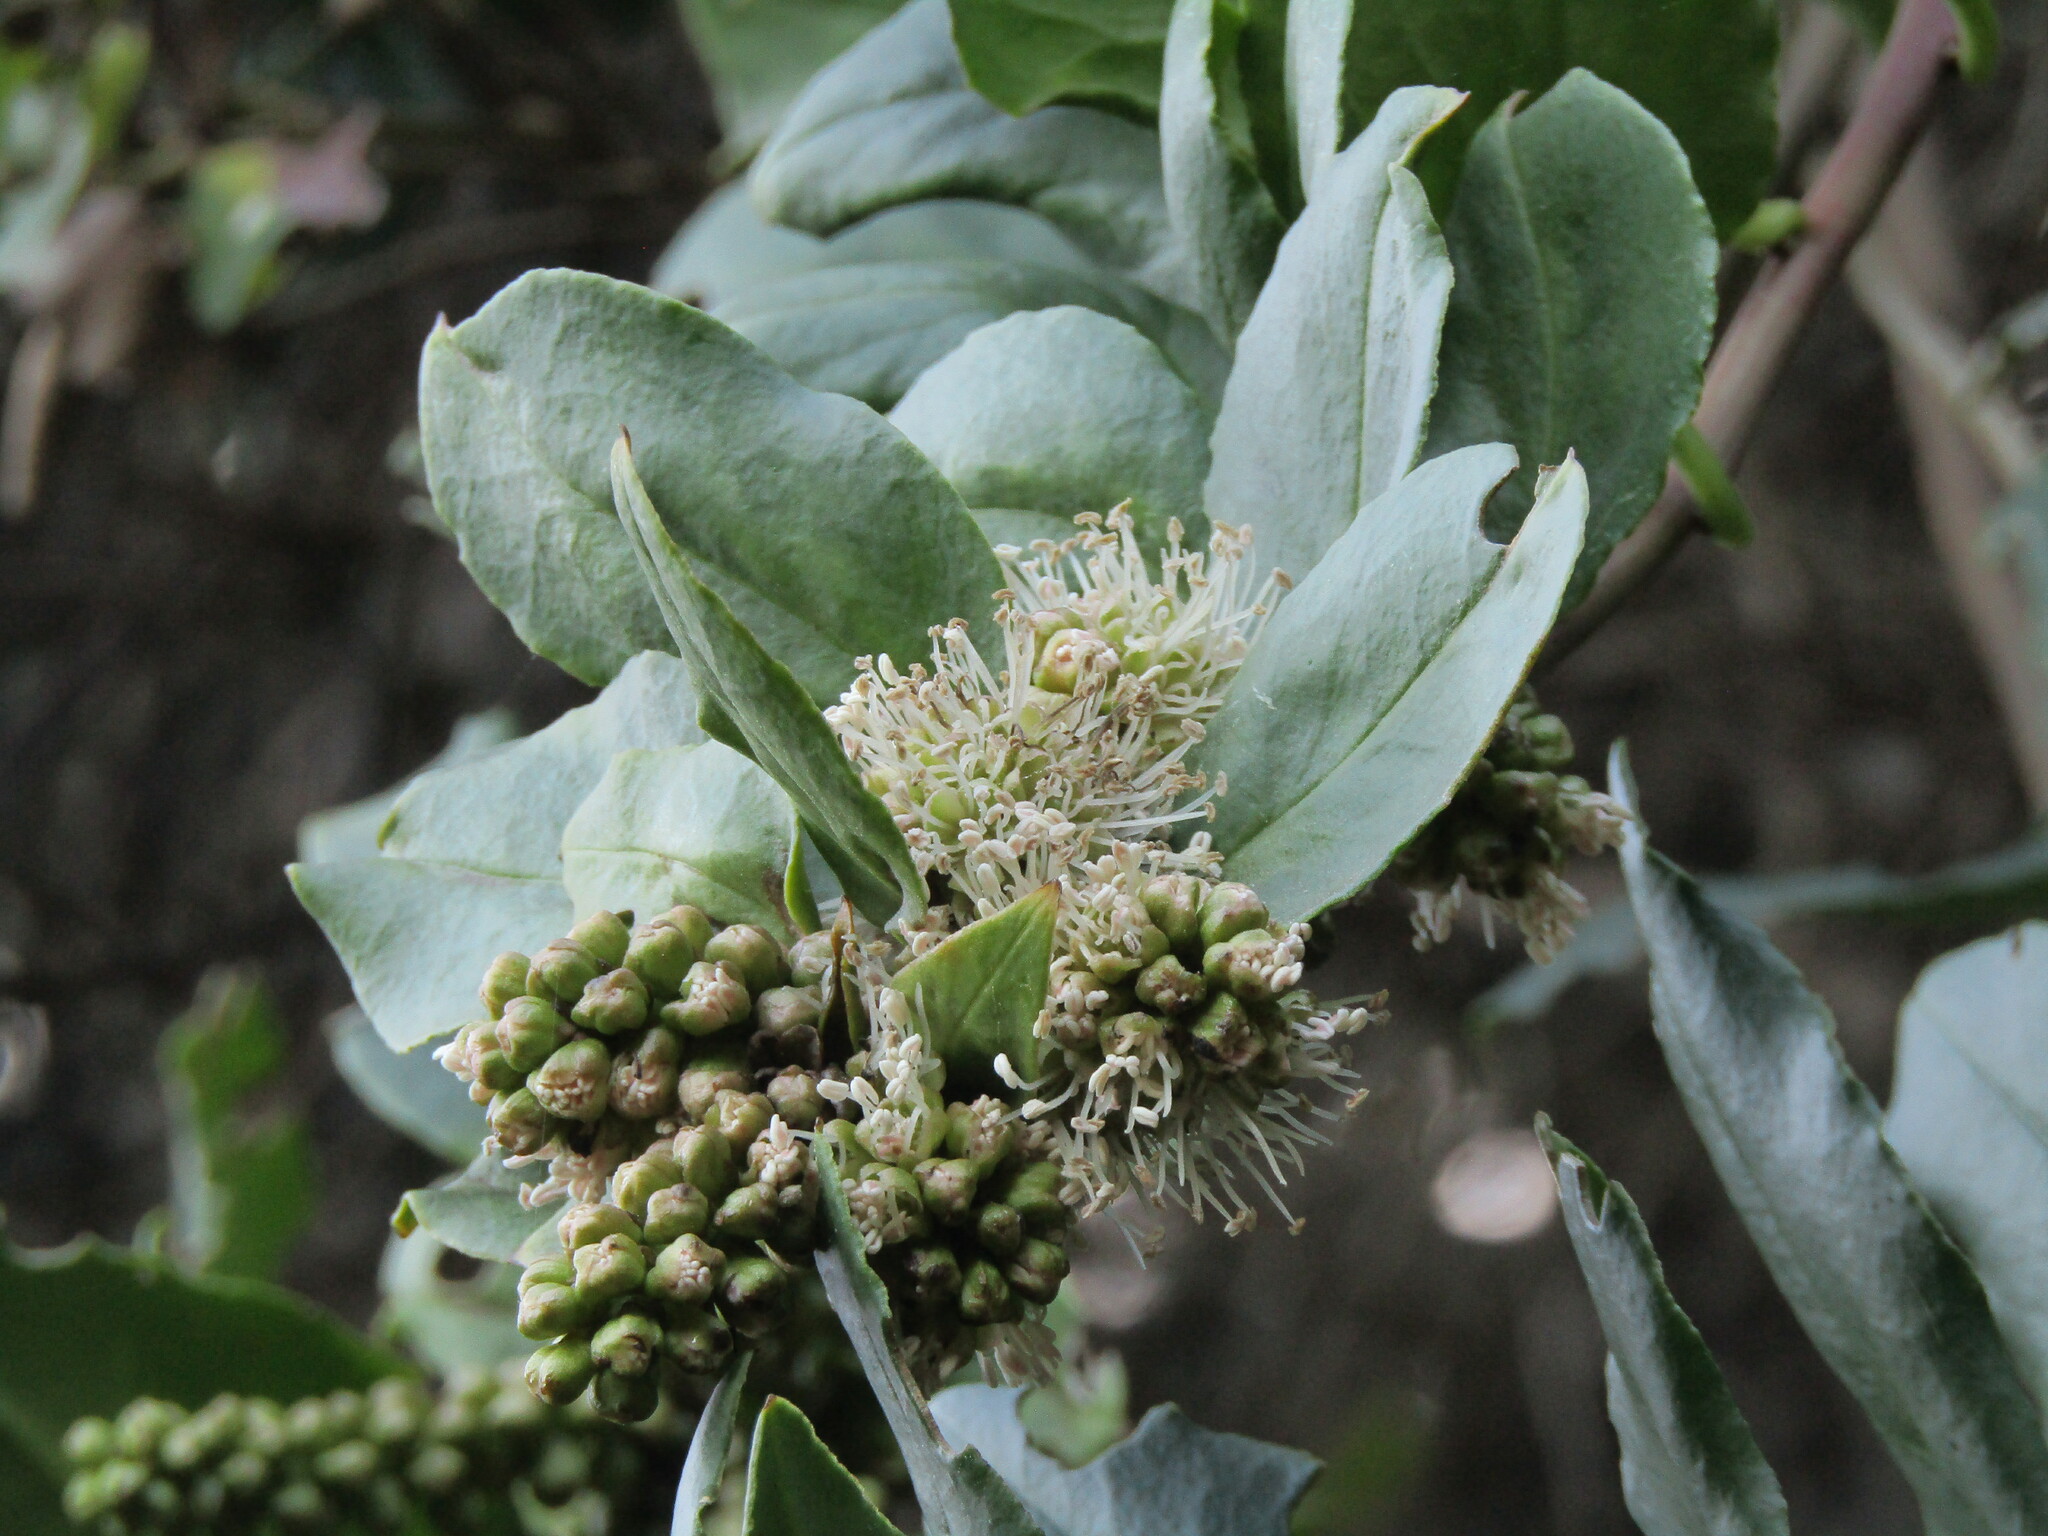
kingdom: Plantae
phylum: Tracheophyta
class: Magnoliopsida
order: Caryophyllales
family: Phytolaccaceae
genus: Ercilla
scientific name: Ercilla spicata
